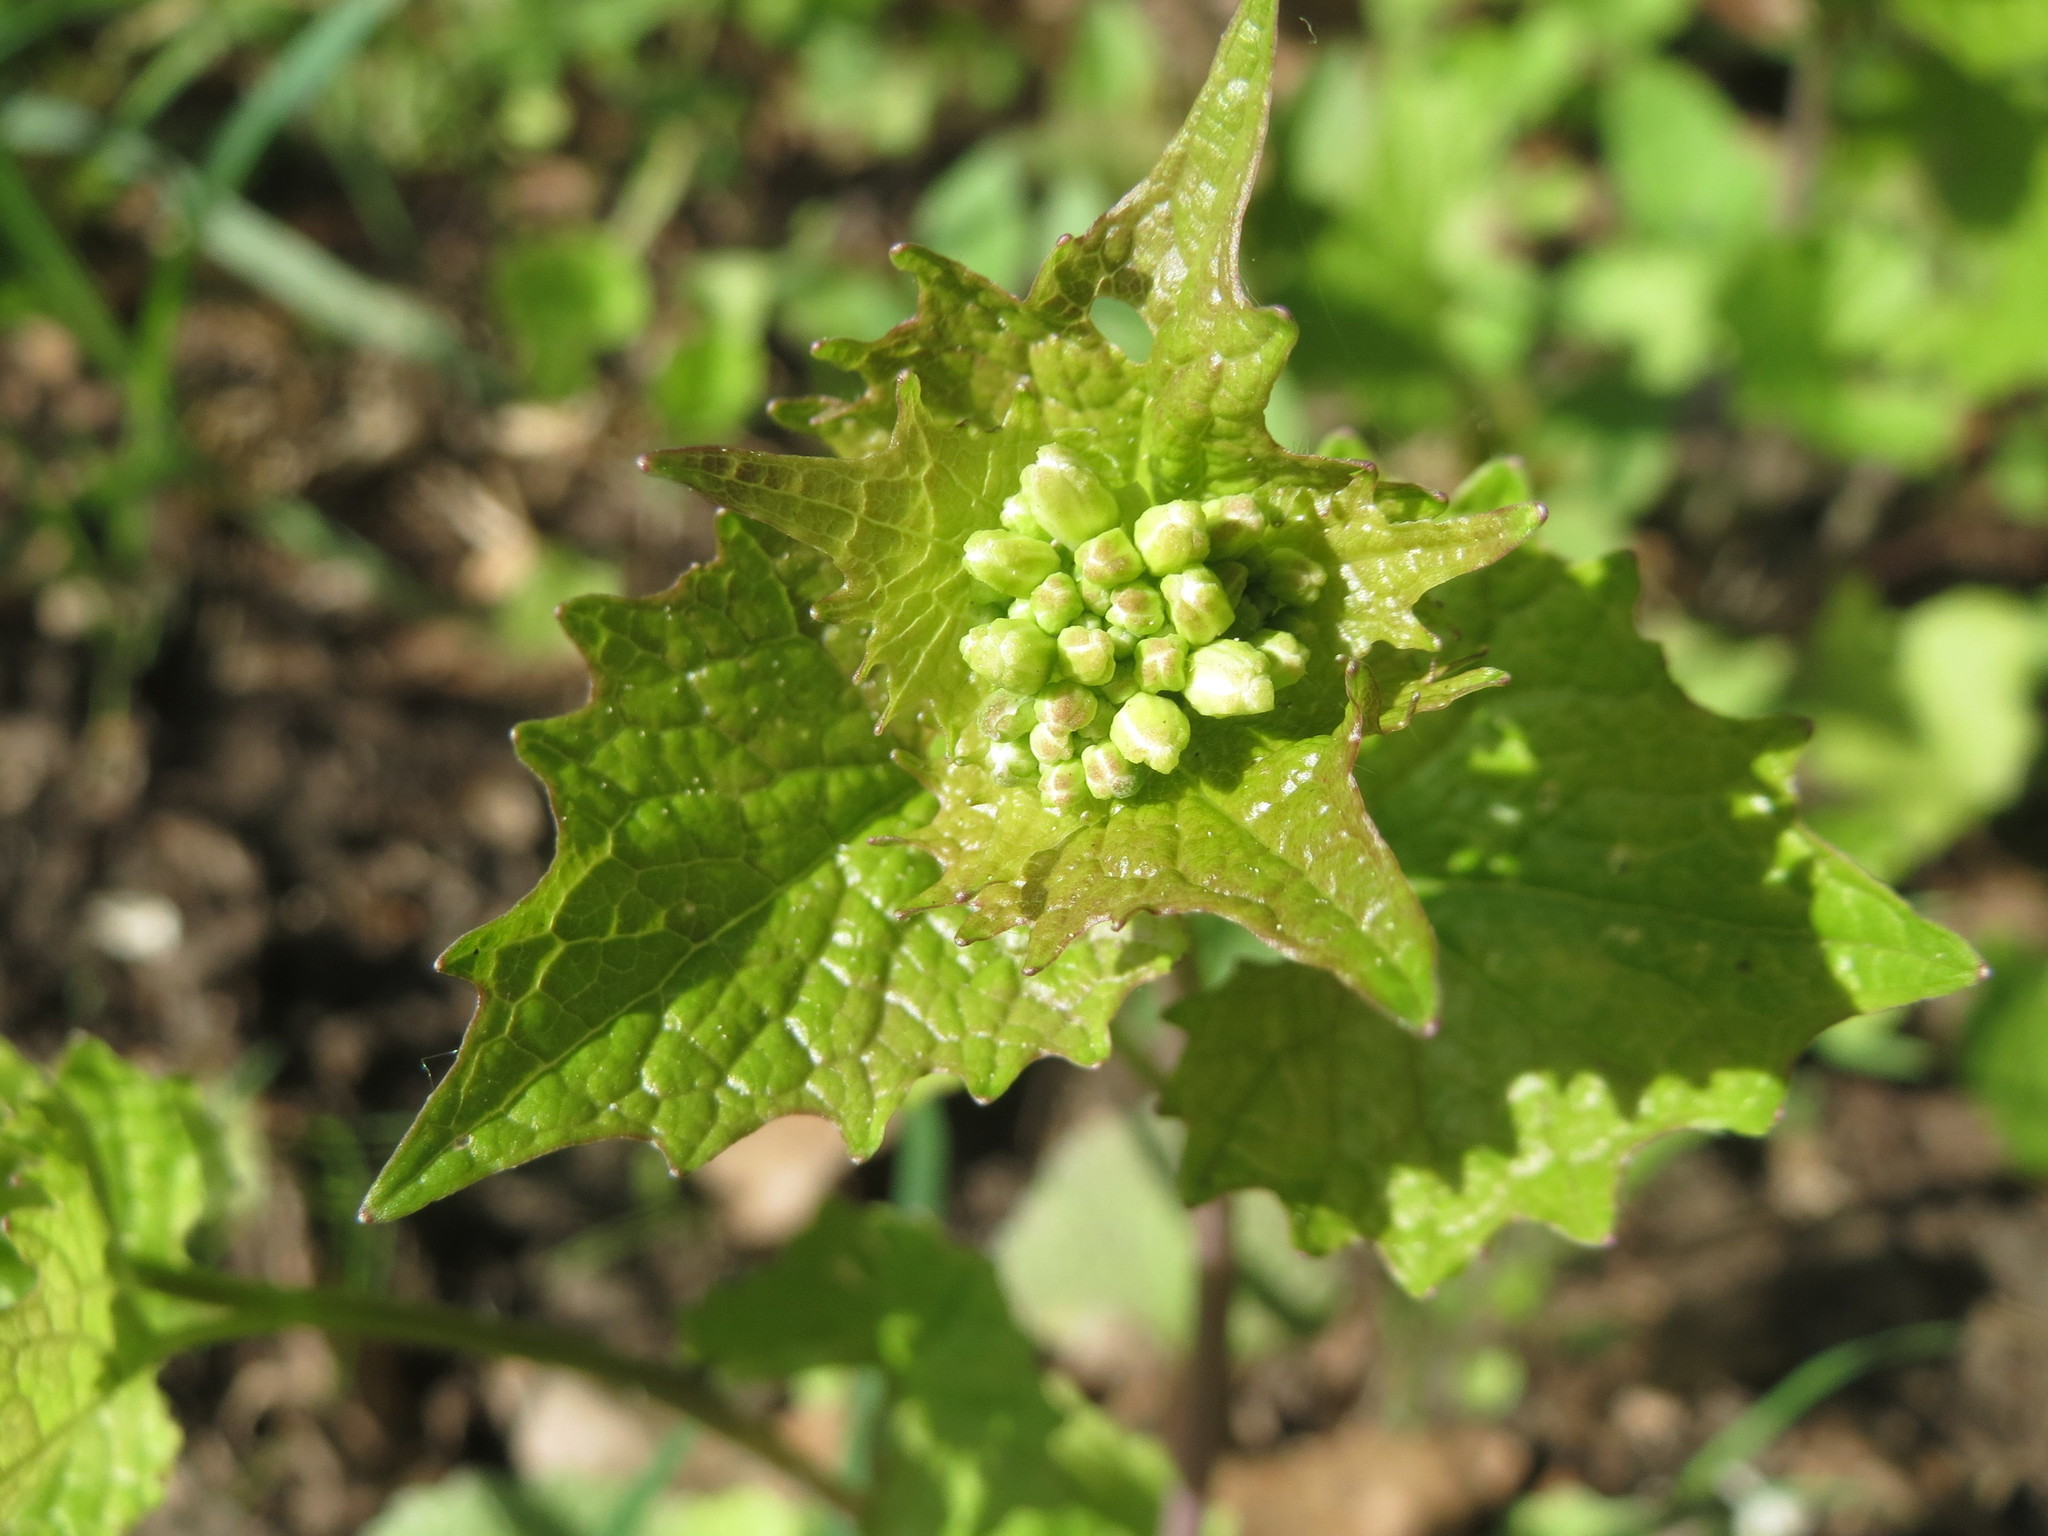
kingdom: Plantae
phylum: Tracheophyta
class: Magnoliopsida
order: Brassicales
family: Brassicaceae
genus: Alliaria
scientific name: Alliaria petiolata
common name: Garlic mustard
